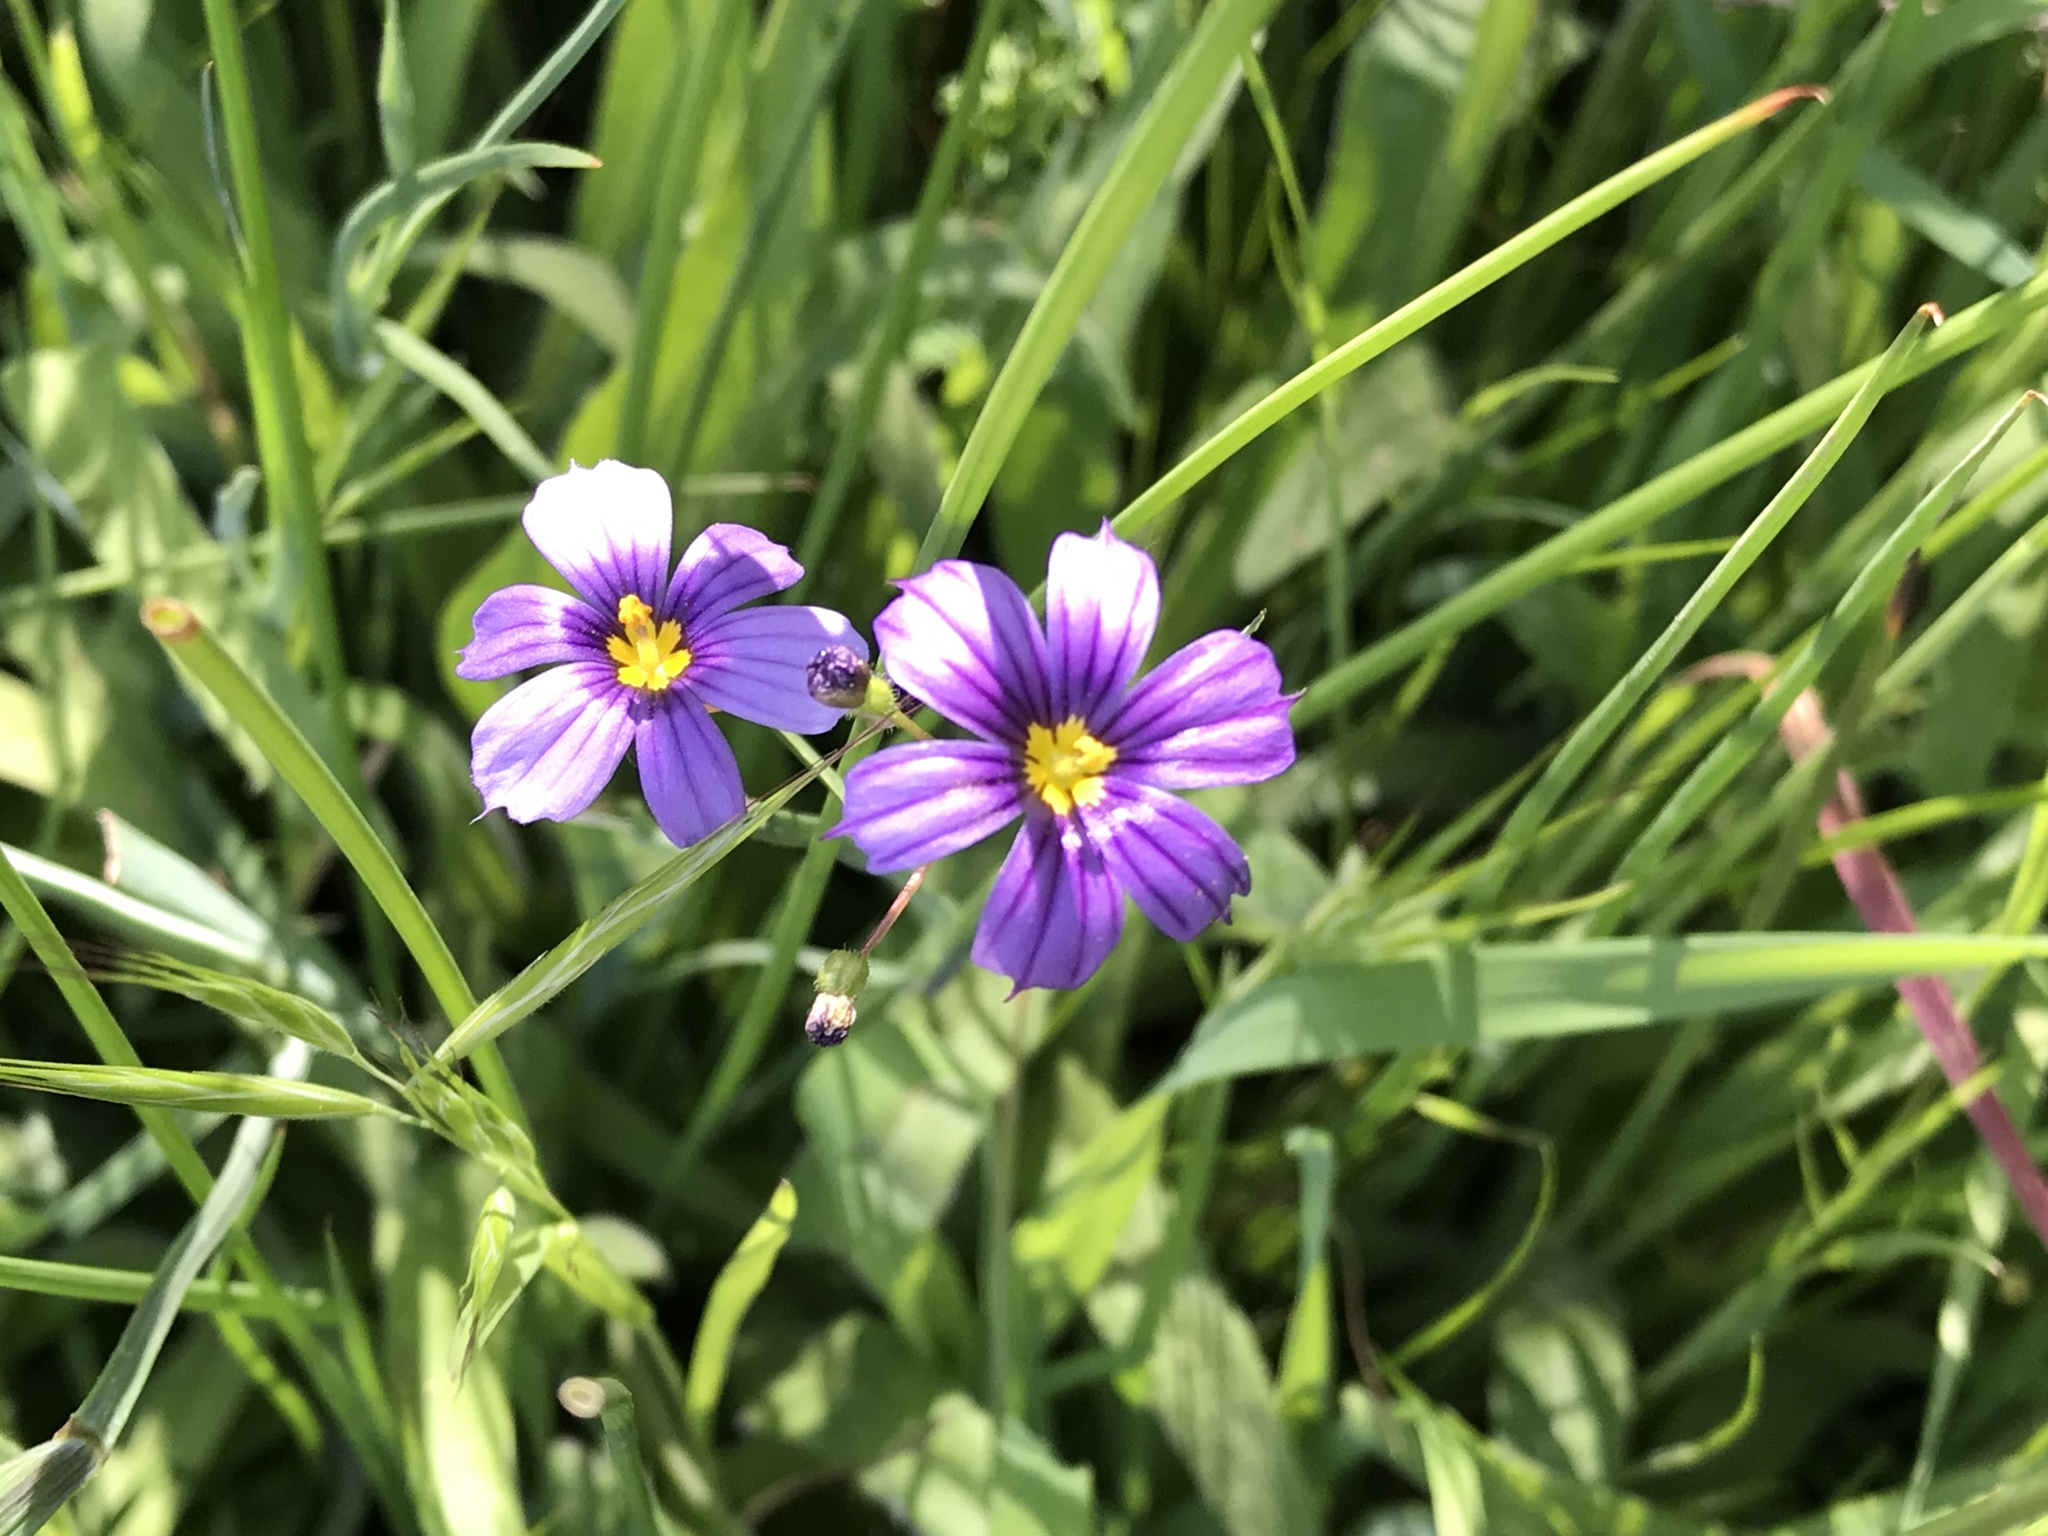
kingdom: Plantae
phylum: Tracheophyta
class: Liliopsida
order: Asparagales
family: Iridaceae
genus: Sisyrinchium
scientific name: Sisyrinchium bellum
